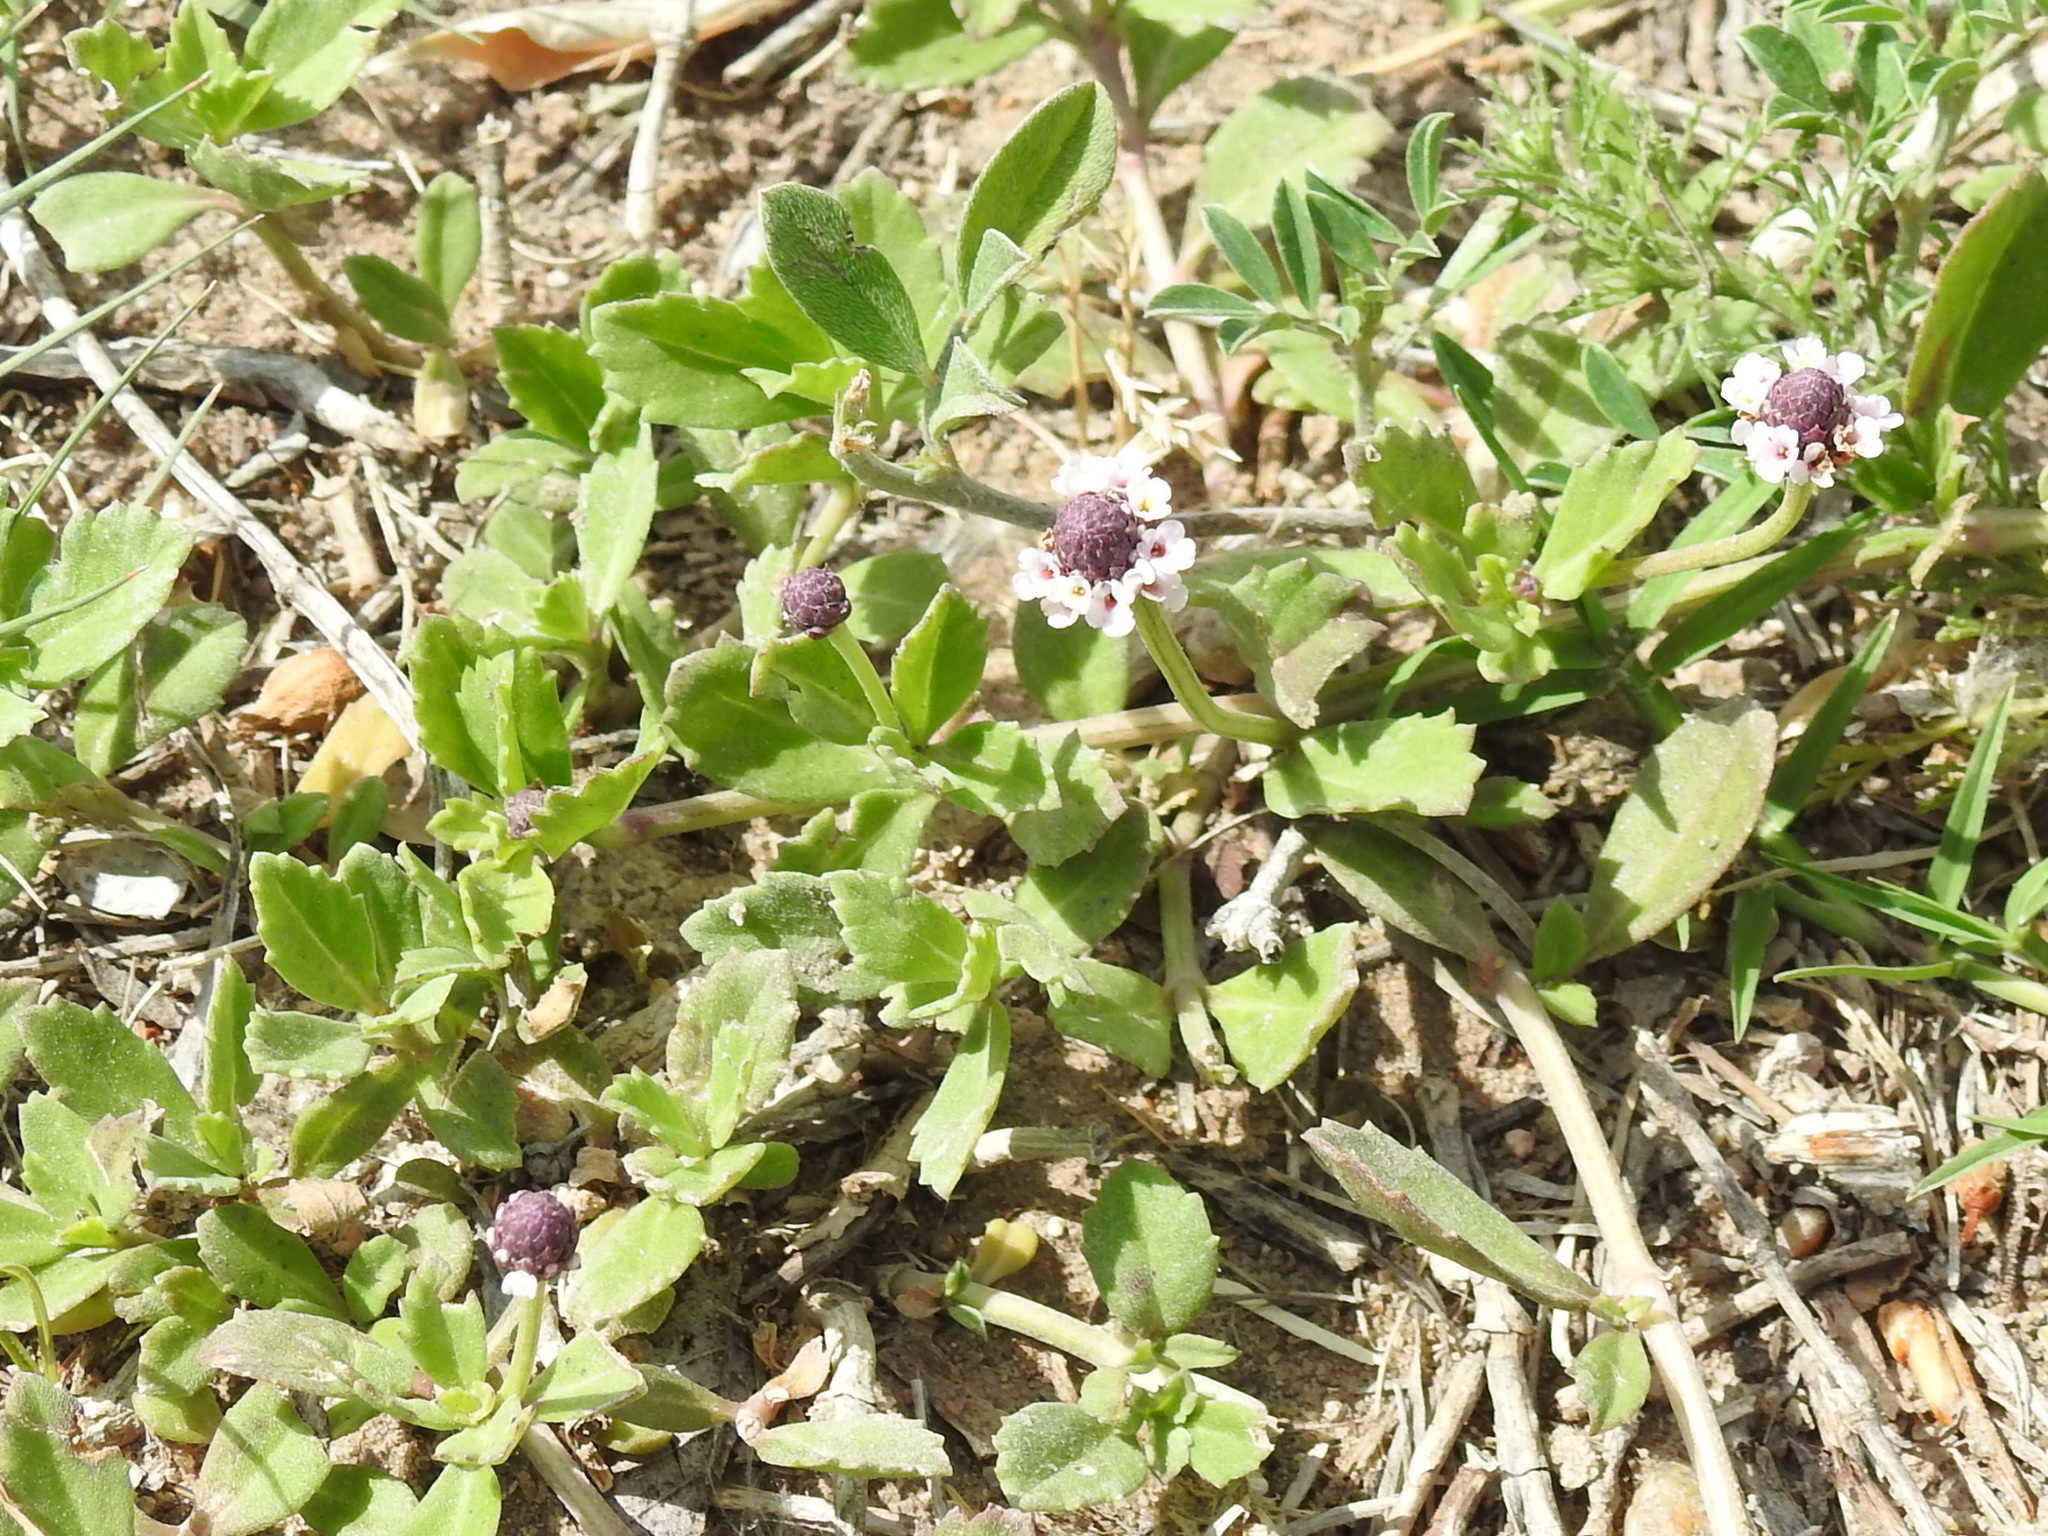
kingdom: Plantae
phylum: Tracheophyta
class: Magnoliopsida
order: Lamiales
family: Verbenaceae
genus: Phyla
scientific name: Phyla nodiflora
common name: Frogfruit
